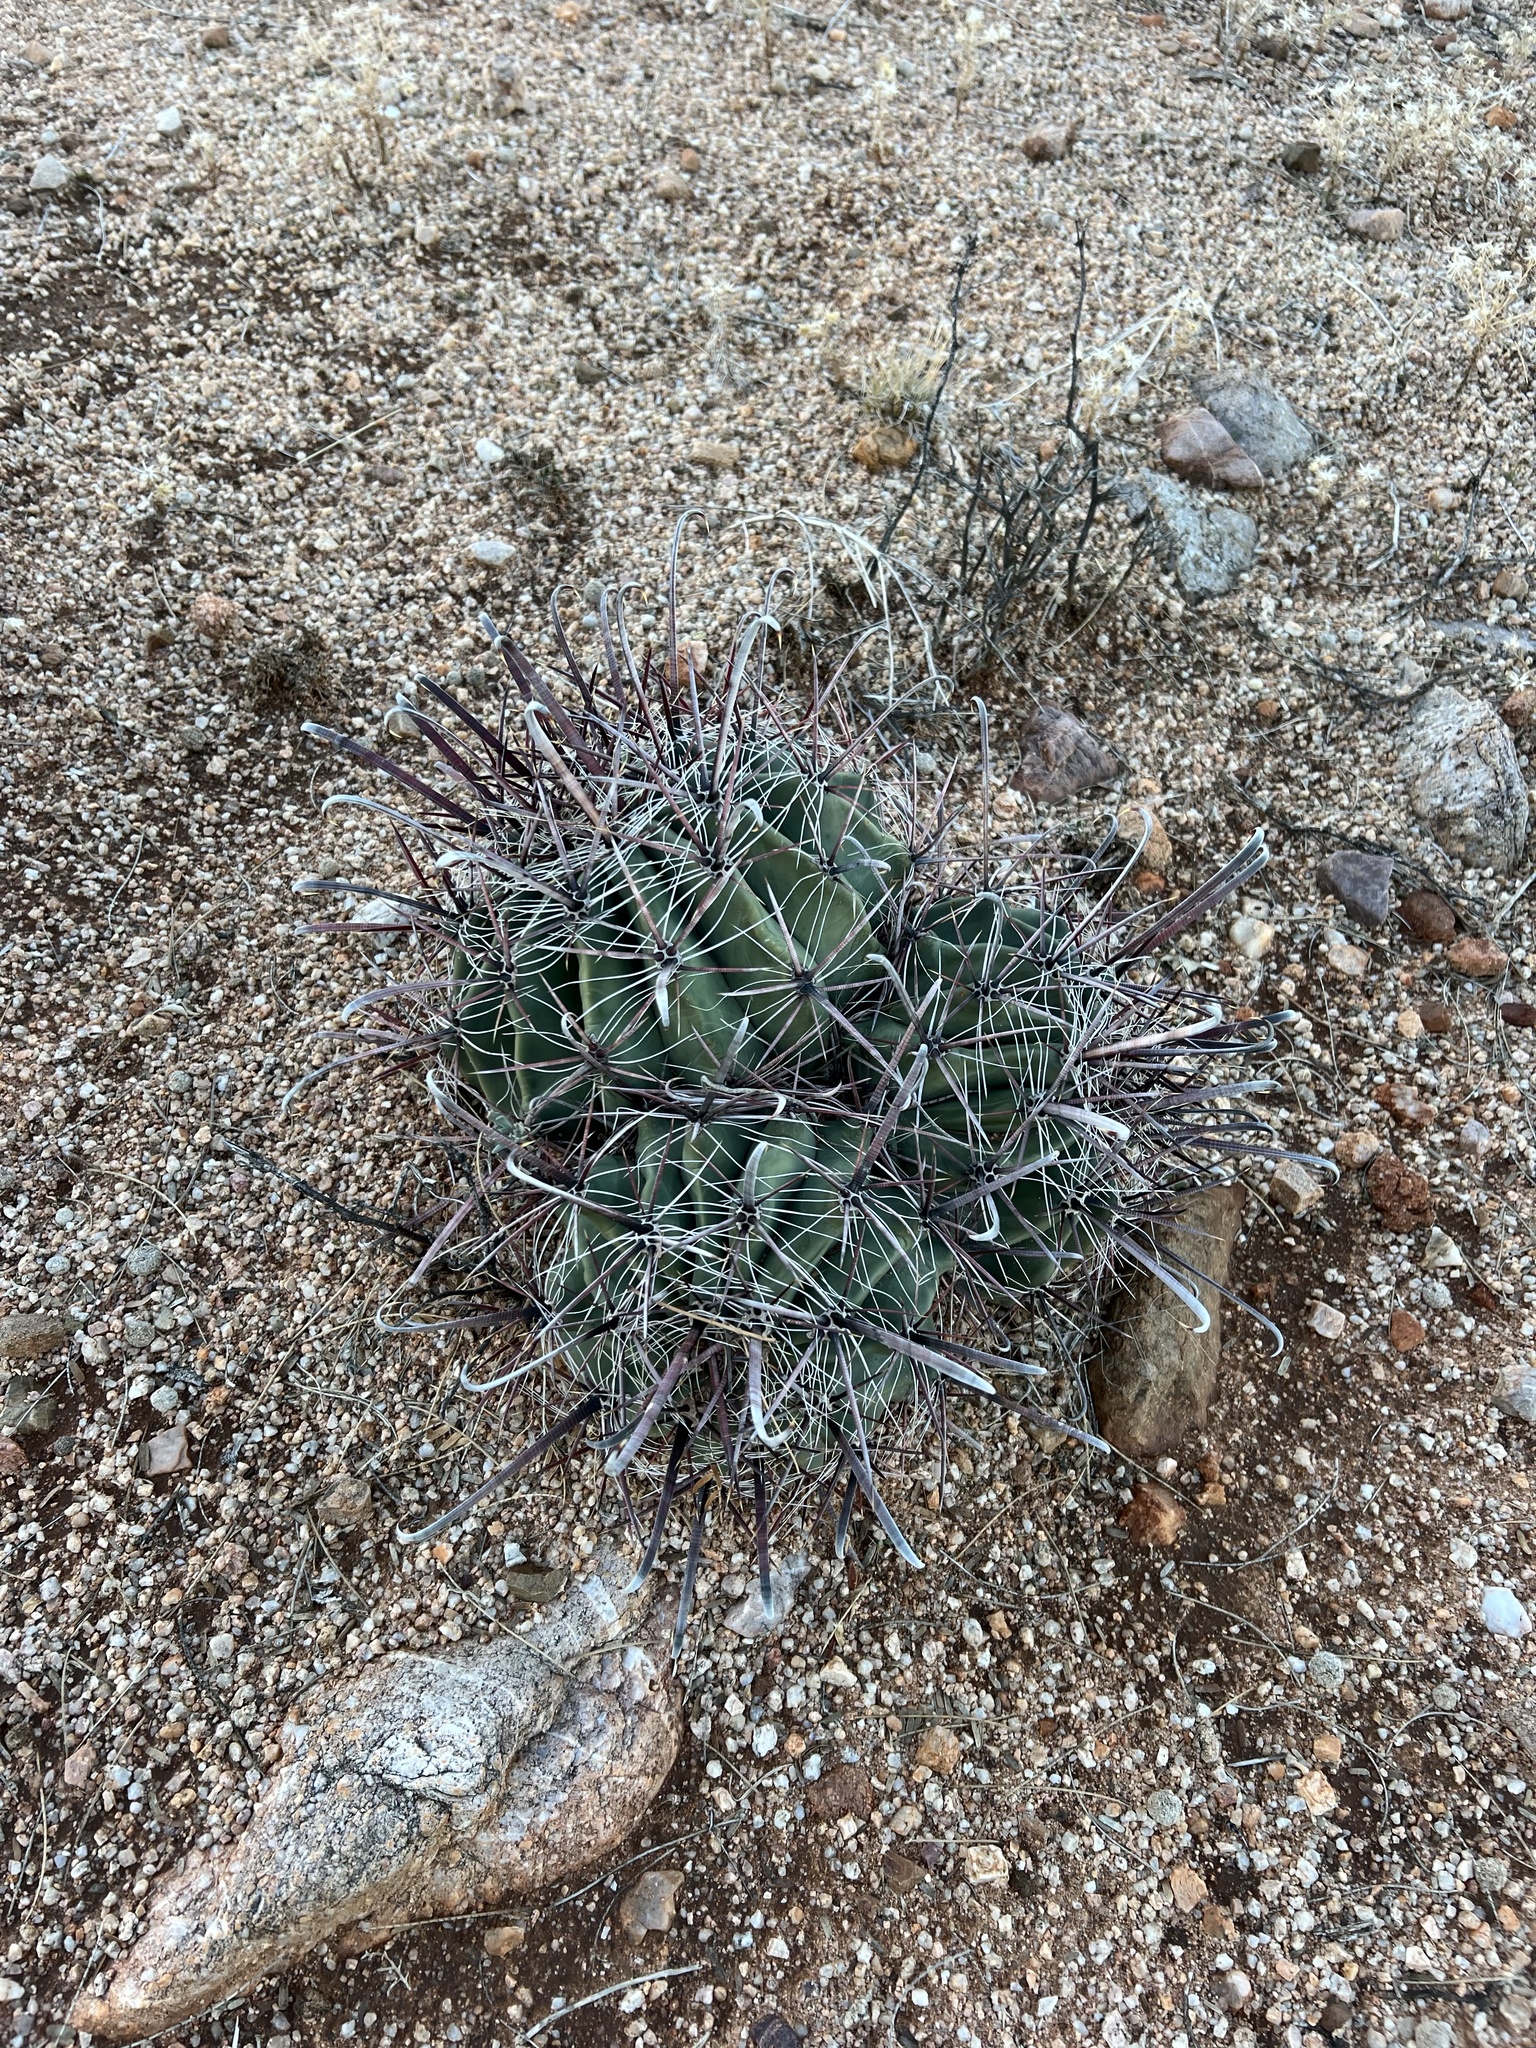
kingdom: Plantae
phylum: Tracheophyta
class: Magnoliopsida
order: Caryophyllales
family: Cactaceae
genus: Ferocactus
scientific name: Ferocactus wislizeni
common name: Candy barrel cactus
